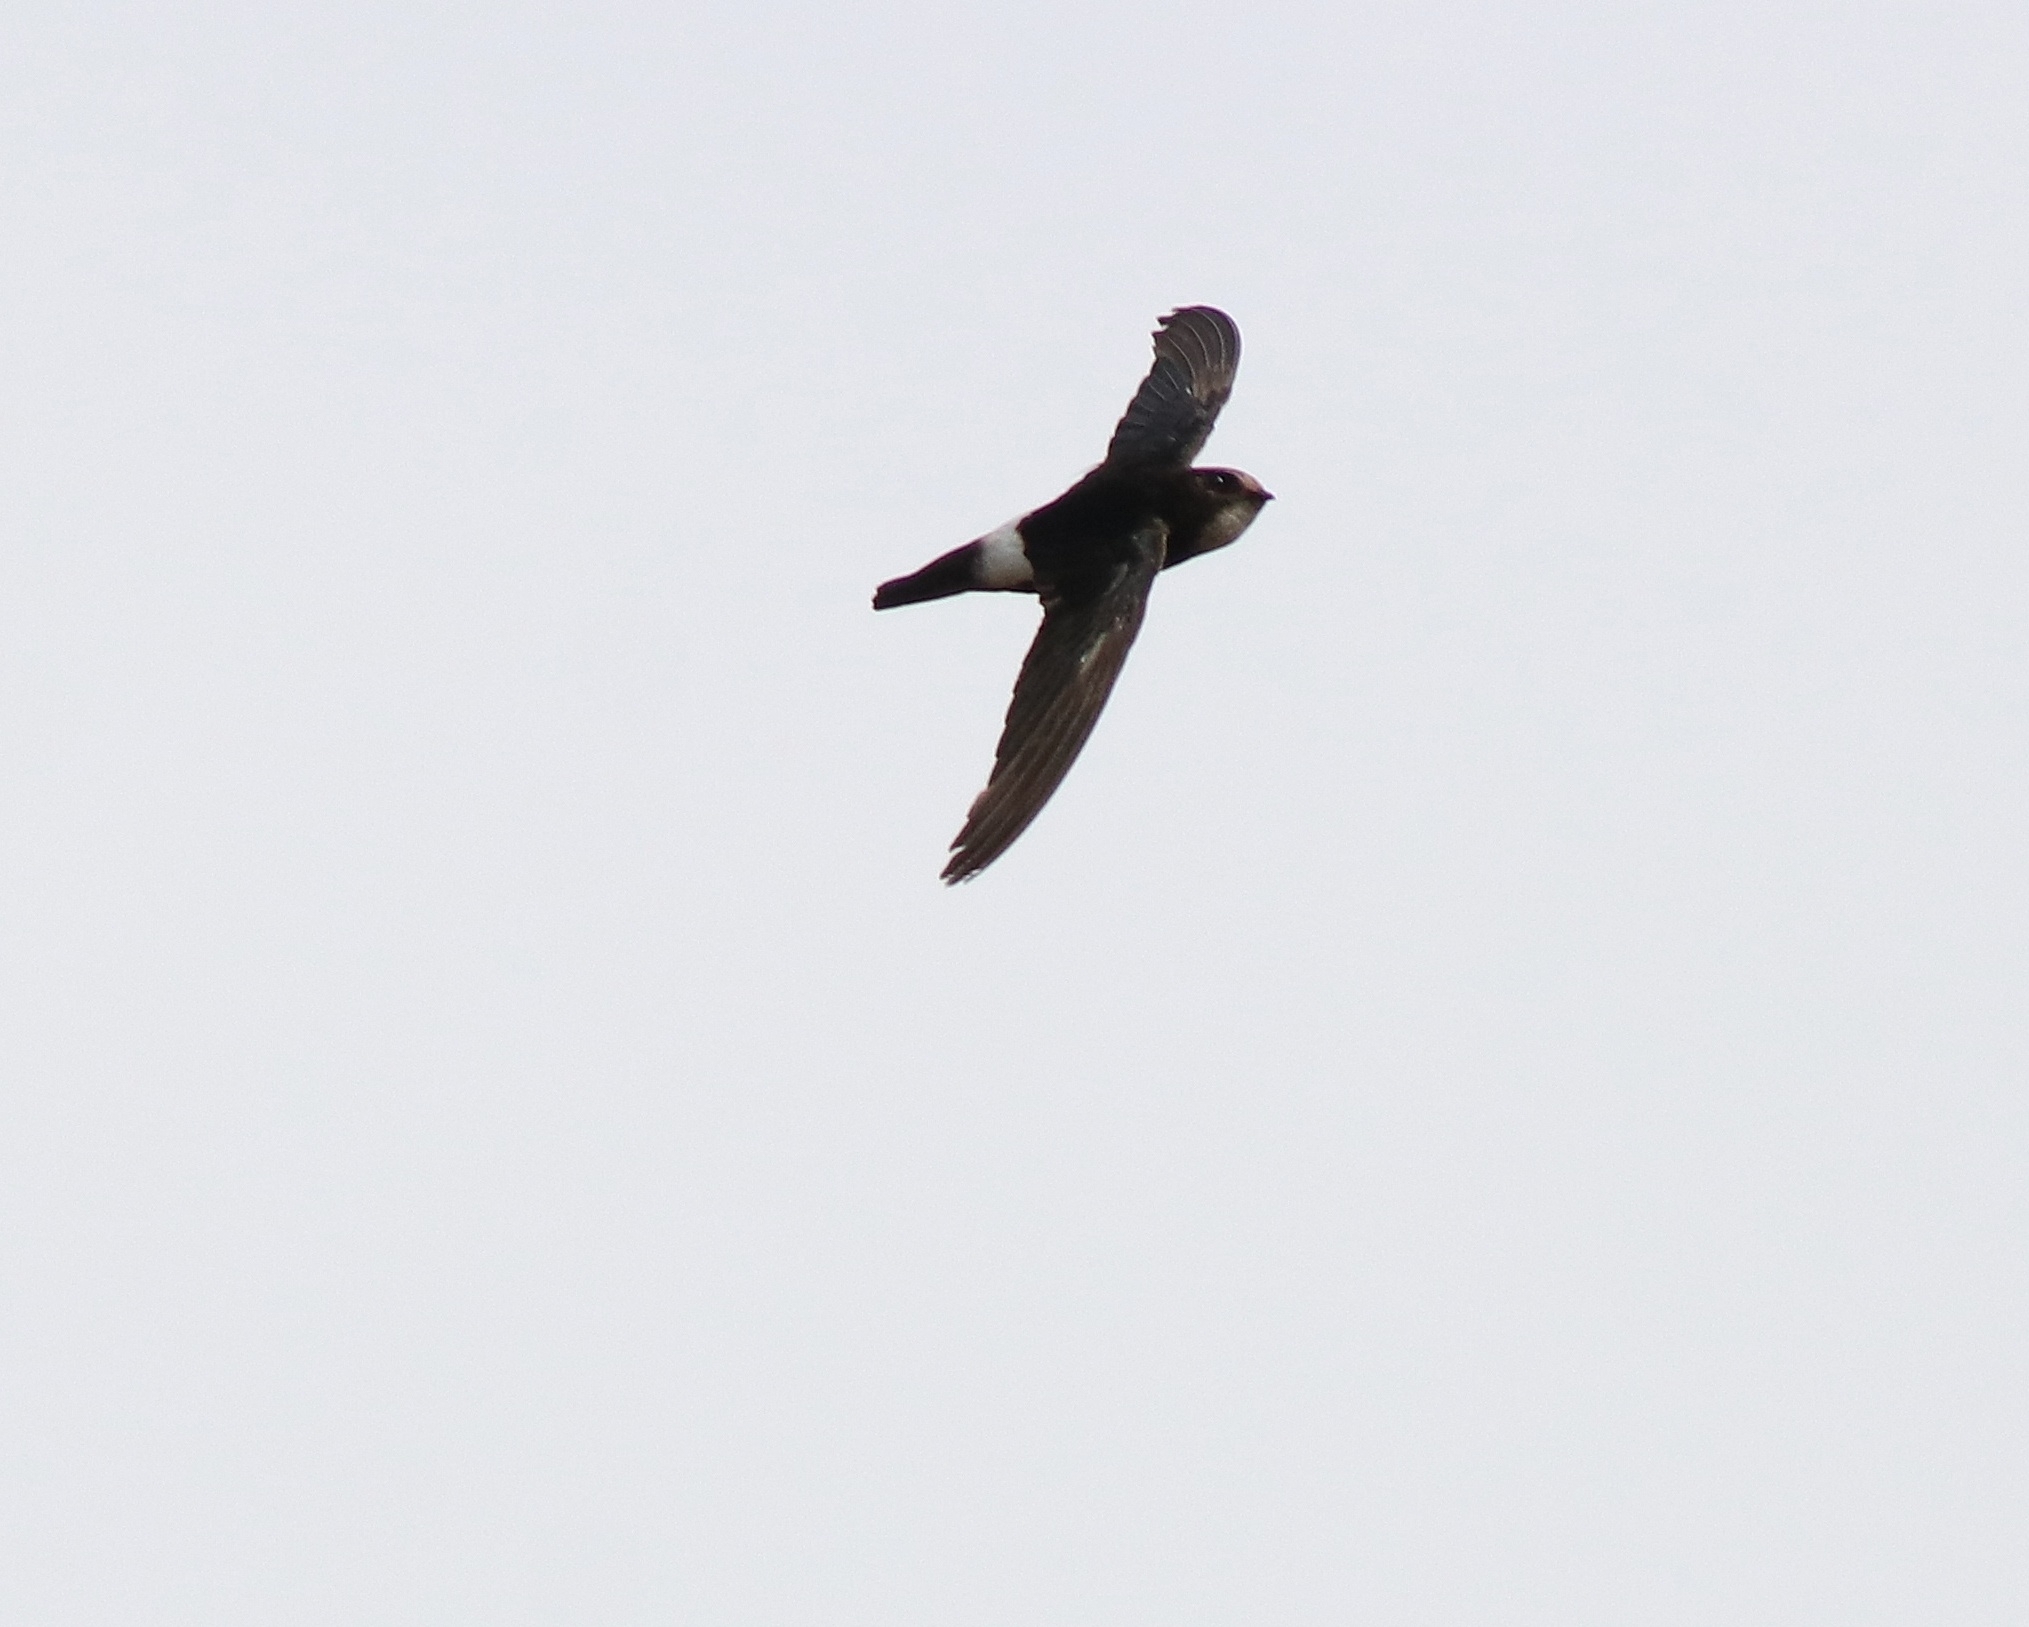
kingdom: Animalia
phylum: Chordata
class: Aves
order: Apodiformes
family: Apodidae
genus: Apus
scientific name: Apus affinis
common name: Little swift
